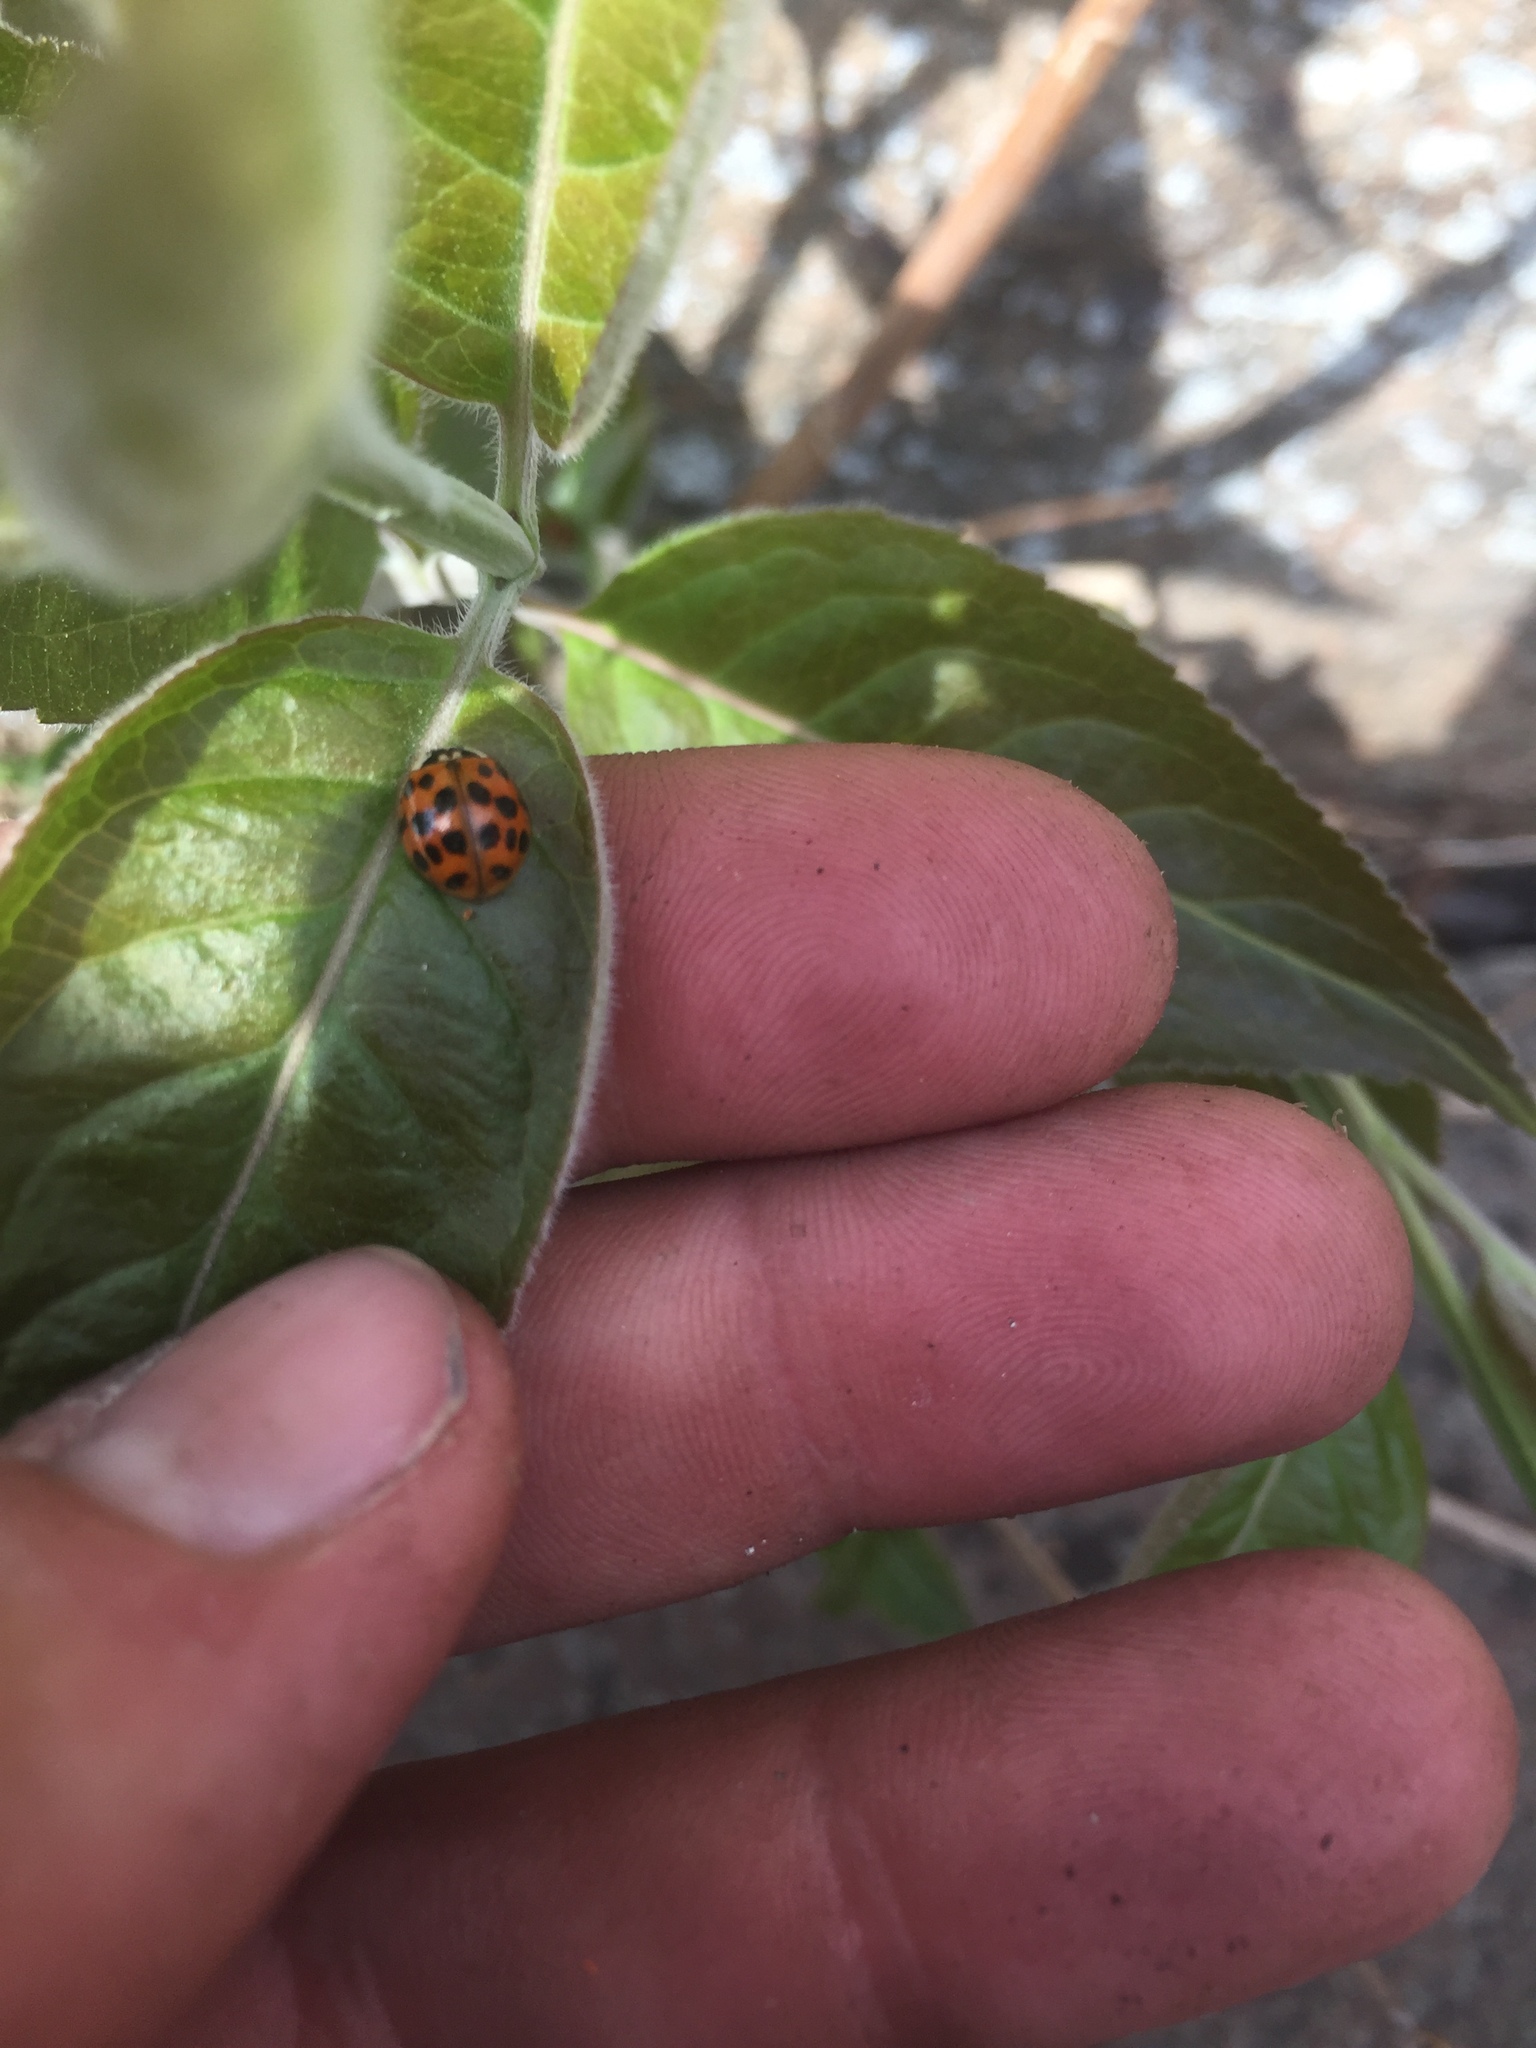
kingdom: Animalia
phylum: Arthropoda
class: Insecta
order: Coleoptera
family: Coccinellidae
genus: Harmonia
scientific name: Harmonia axyridis
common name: Harlequin ladybird
